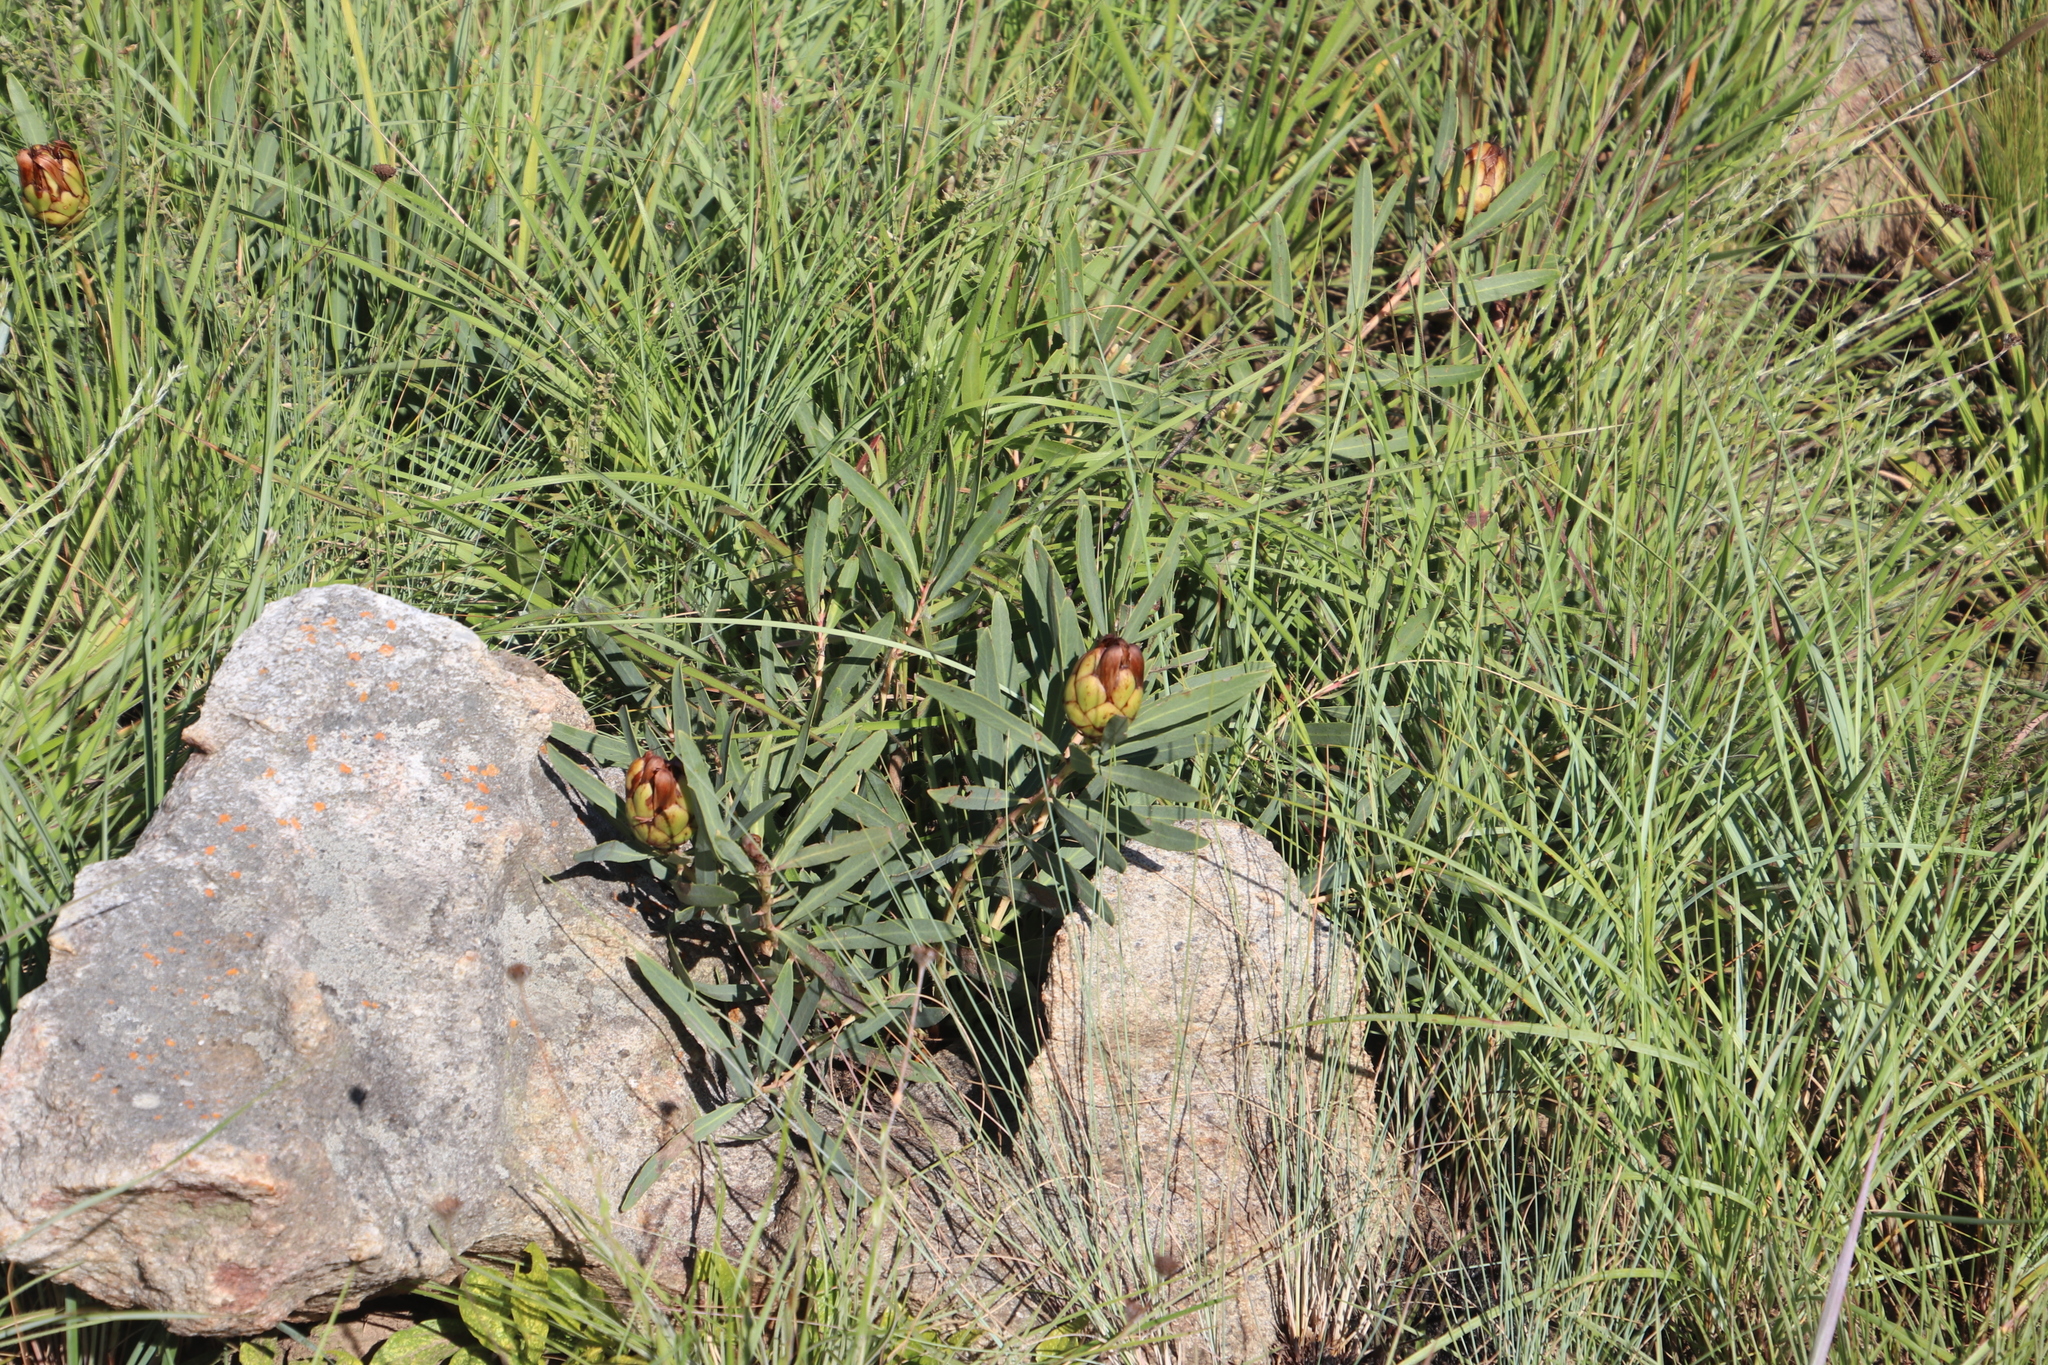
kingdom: Plantae
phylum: Tracheophyta
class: Magnoliopsida
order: Proteales
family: Proteaceae
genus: Protea
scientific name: Protea simplex
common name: Dwarf grassveld sugarbush
